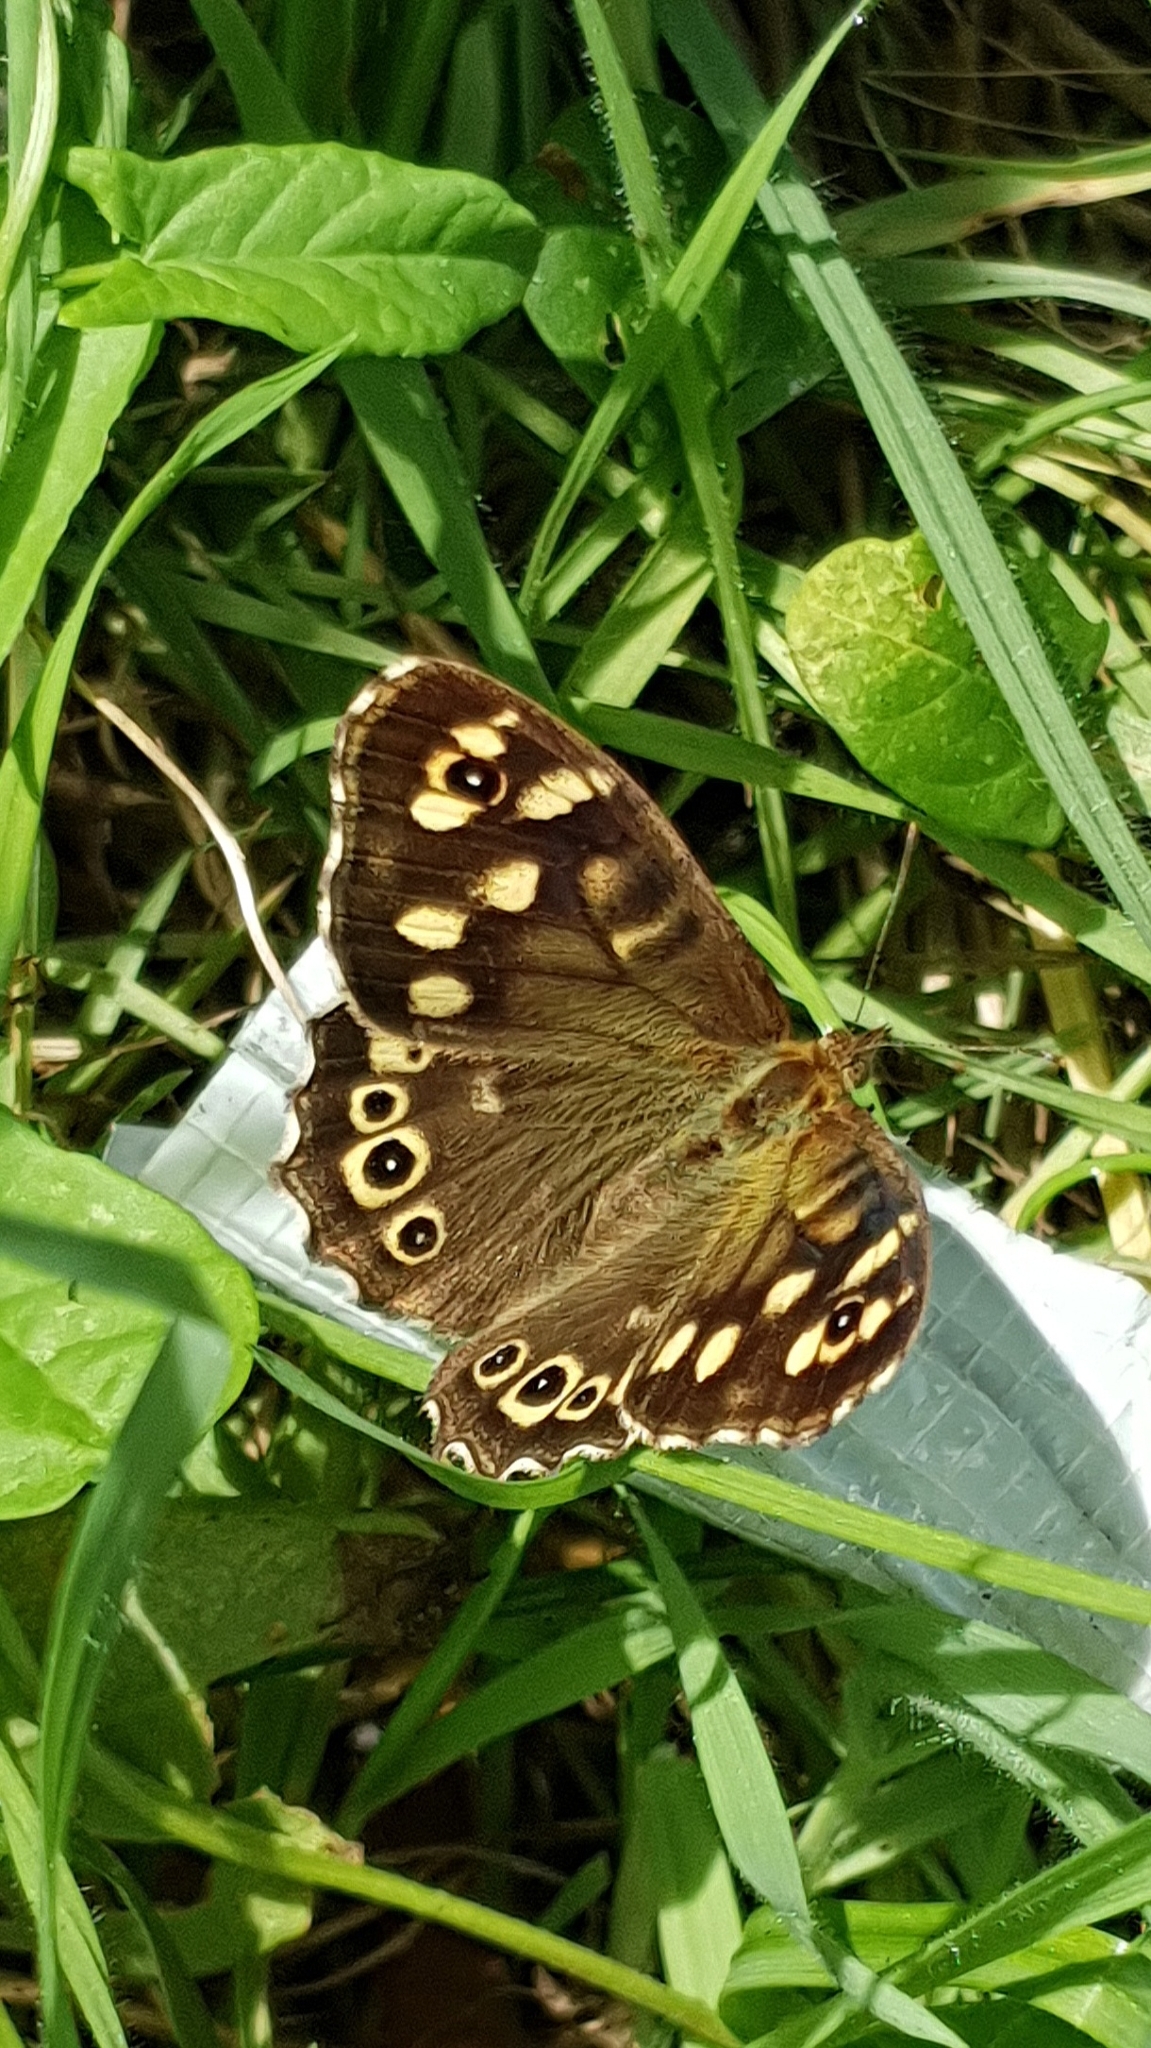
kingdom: Animalia
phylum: Arthropoda
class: Insecta
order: Lepidoptera
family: Nymphalidae
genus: Pararge
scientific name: Pararge aegeria
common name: Speckled wood
